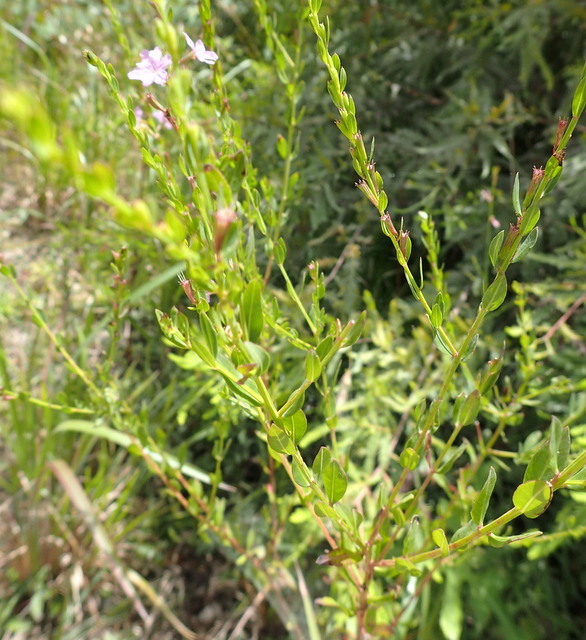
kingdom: Plantae
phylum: Tracheophyta
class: Magnoliopsida
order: Myrtales
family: Lythraceae
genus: Lythrum
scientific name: Lythrum alatum
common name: Winged loosestrife
